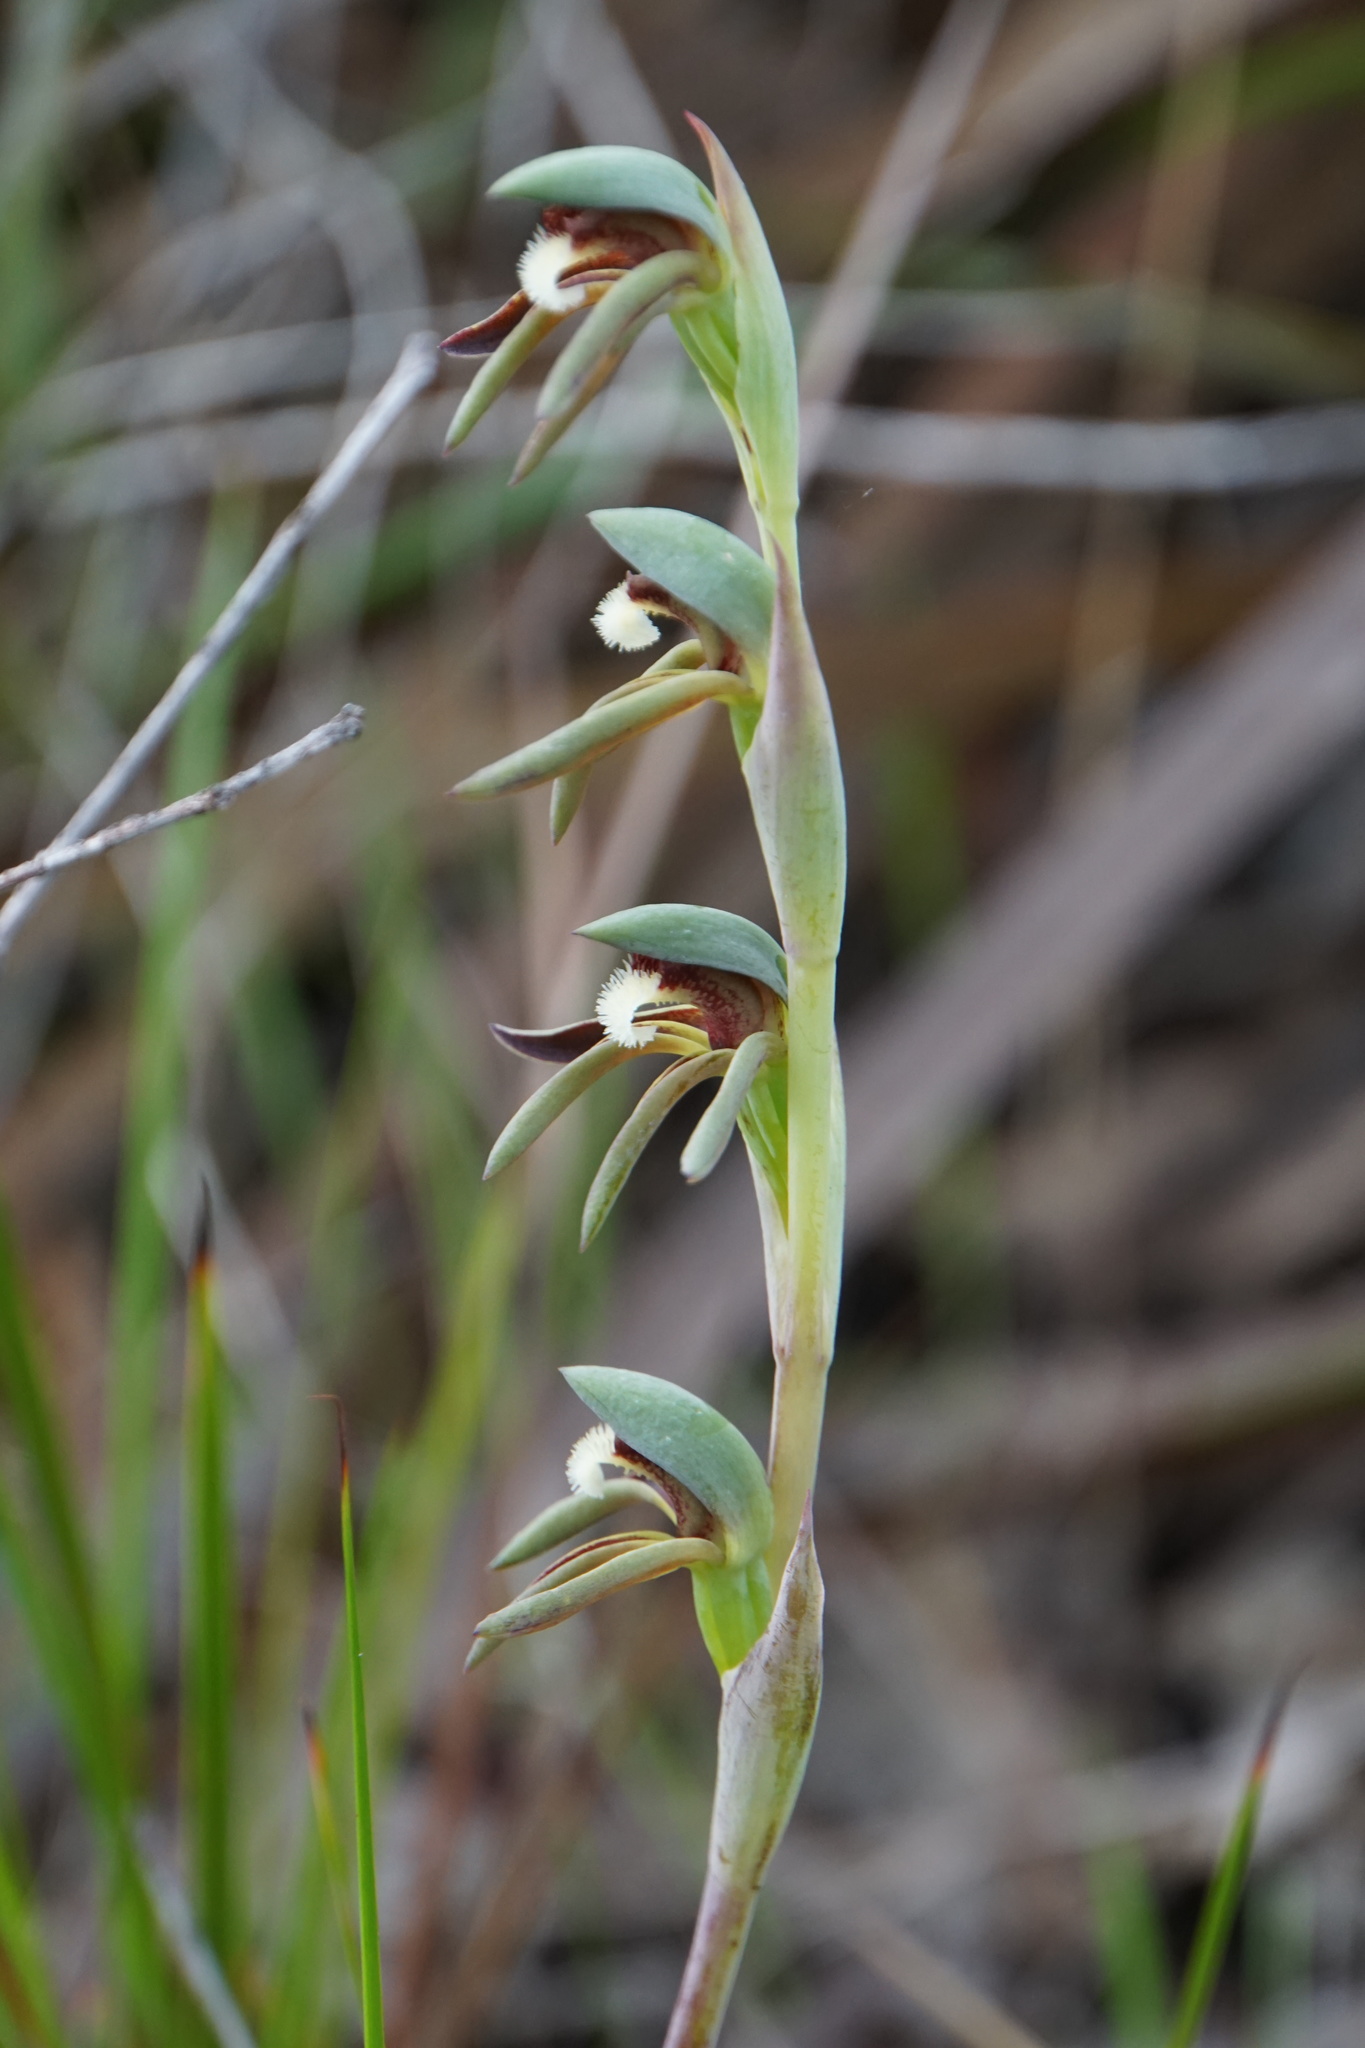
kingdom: Plantae
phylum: Tracheophyta
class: Liliopsida
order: Asparagales
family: Orchidaceae
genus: Lyperanthus
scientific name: Lyperanthus serratus
